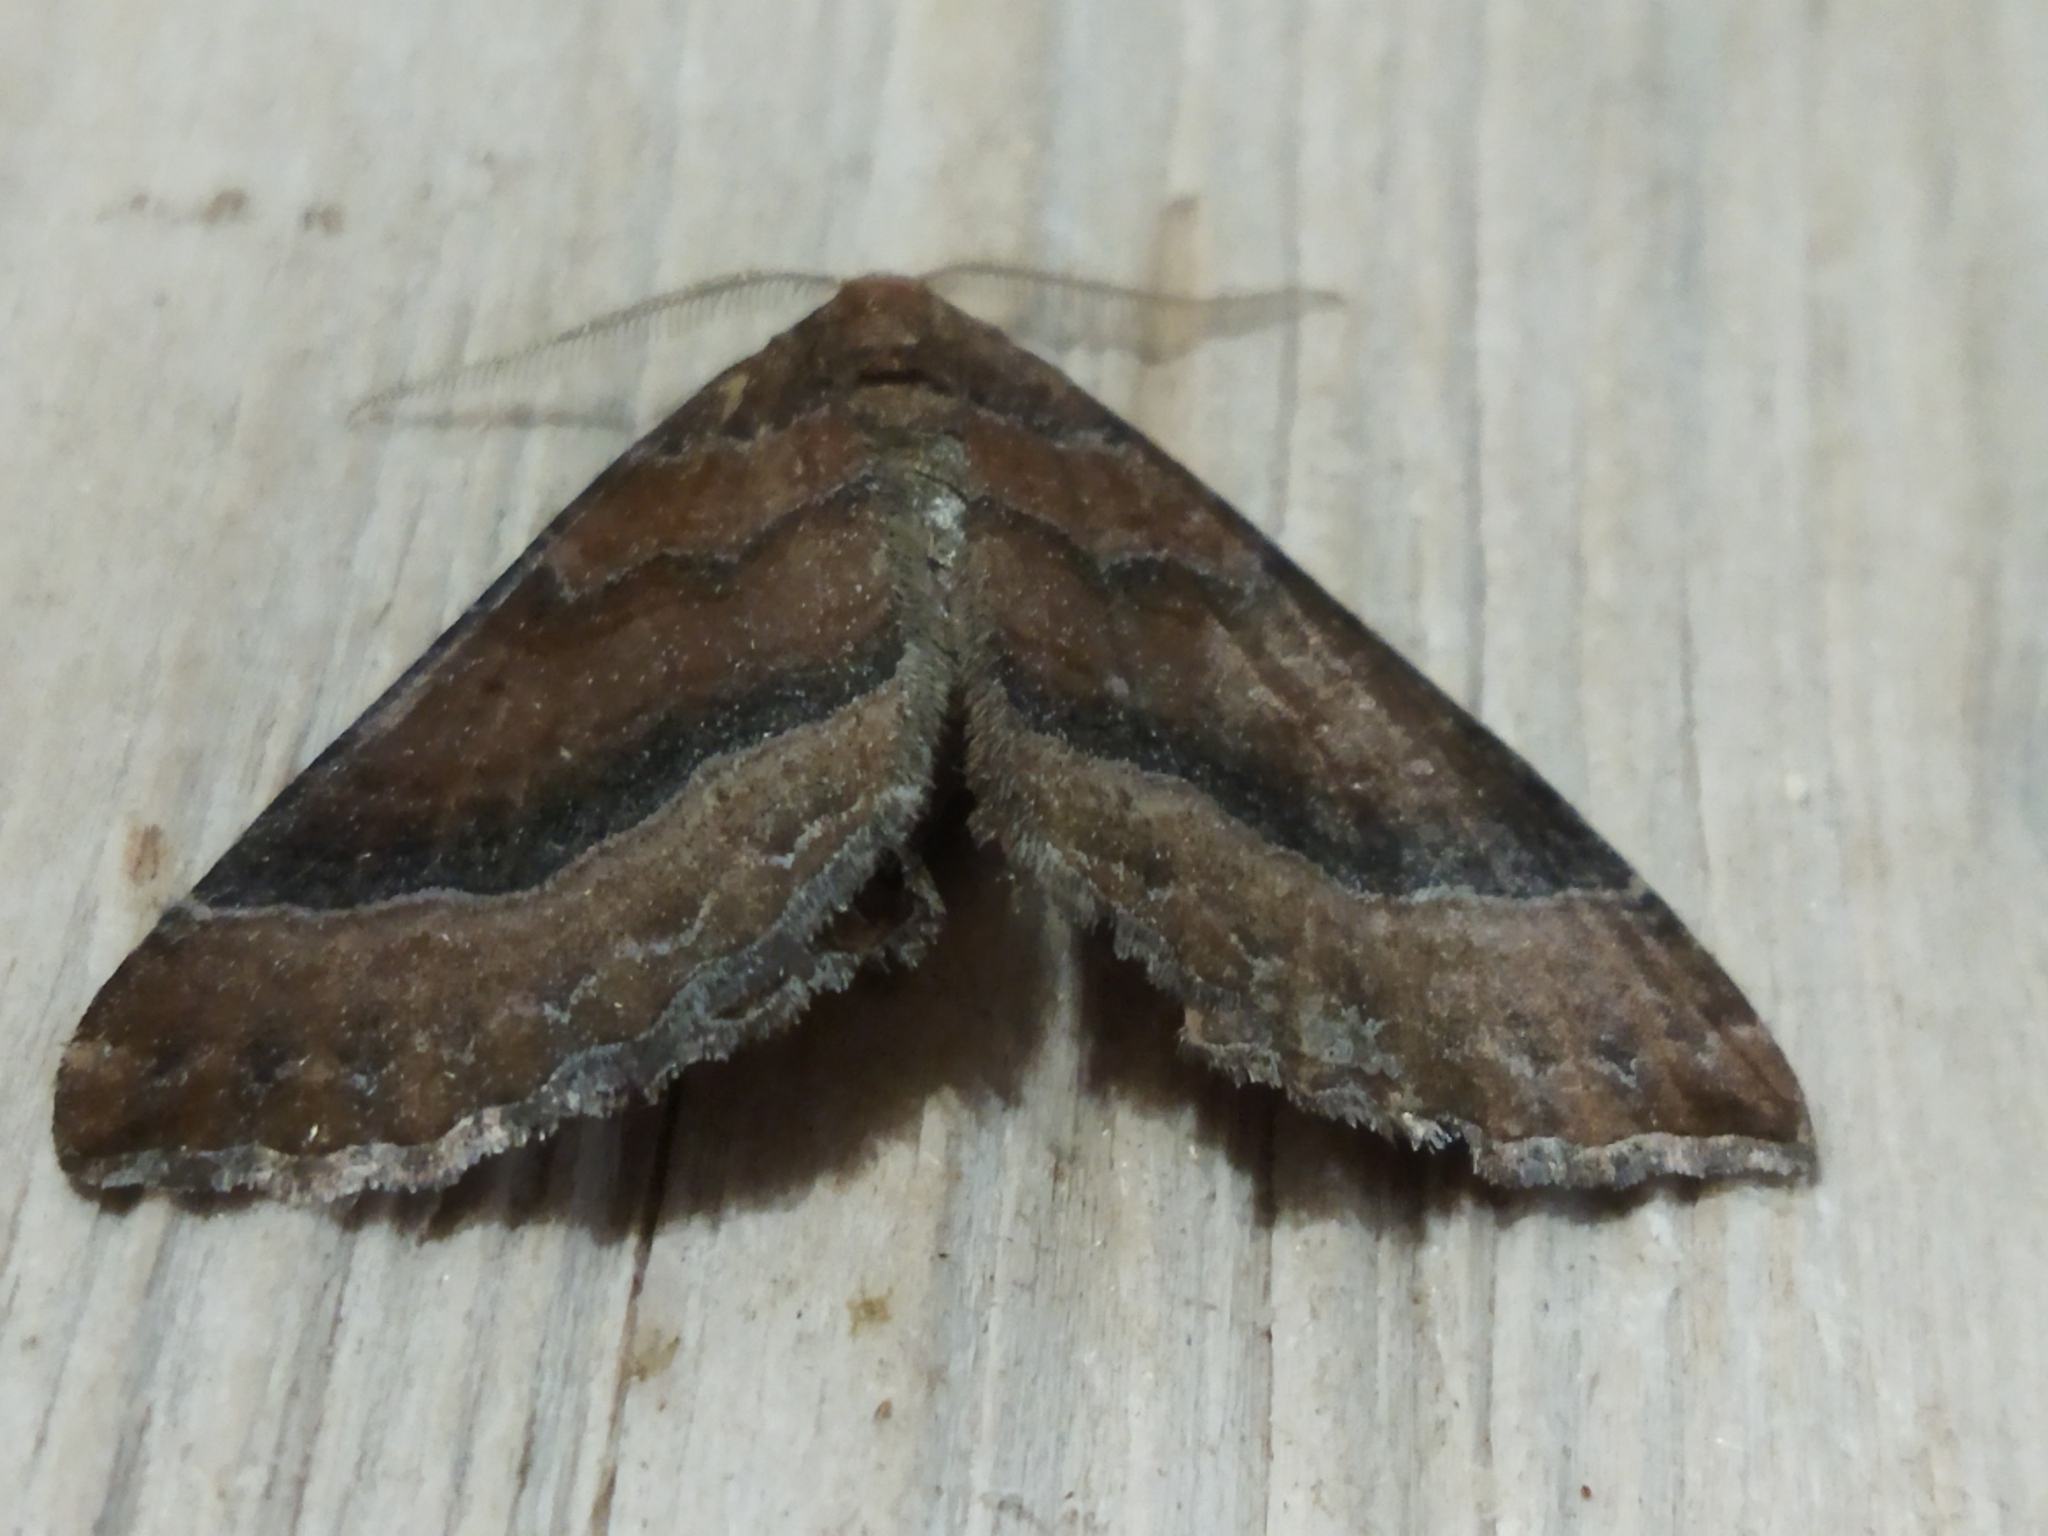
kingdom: Animalia
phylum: Arthropoda
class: Insecta
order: Lepidoptera
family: Geometridae
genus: Larentia
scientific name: Larentia clavaria
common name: Mallow
